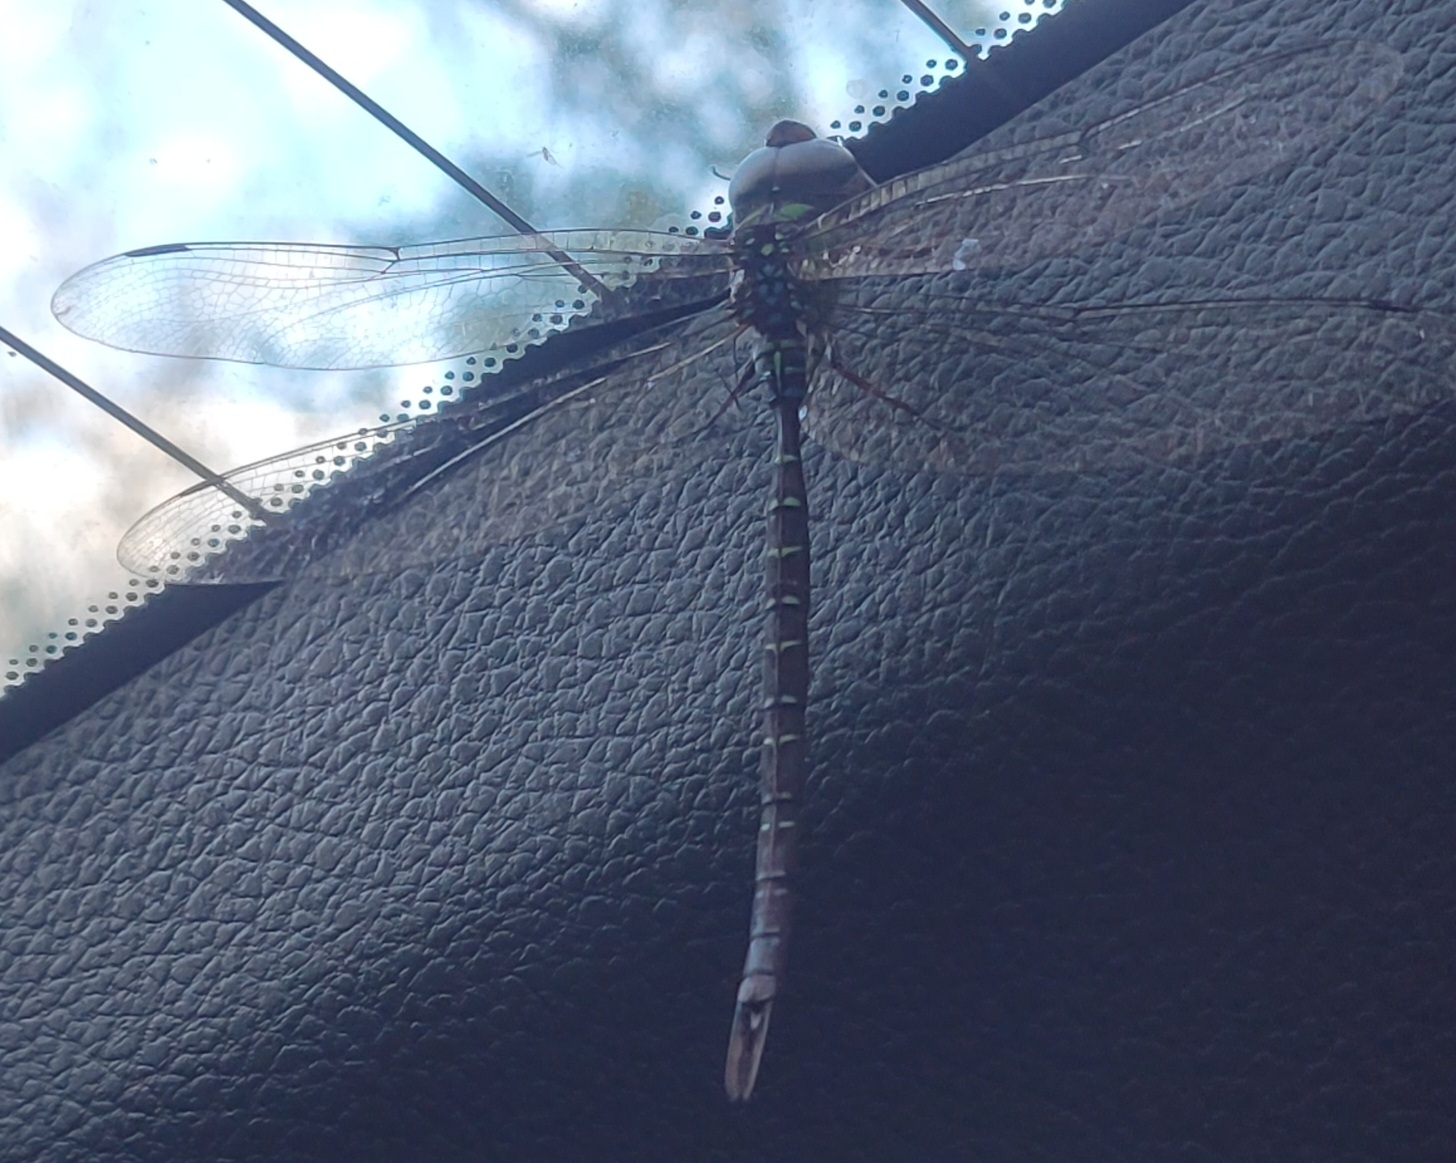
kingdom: Animalia
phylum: Arthropoda
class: Insecta
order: Odonata
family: Aeshnidae
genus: Triacanthagyna
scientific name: Triacanthagyna trifida
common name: Phantom darner
